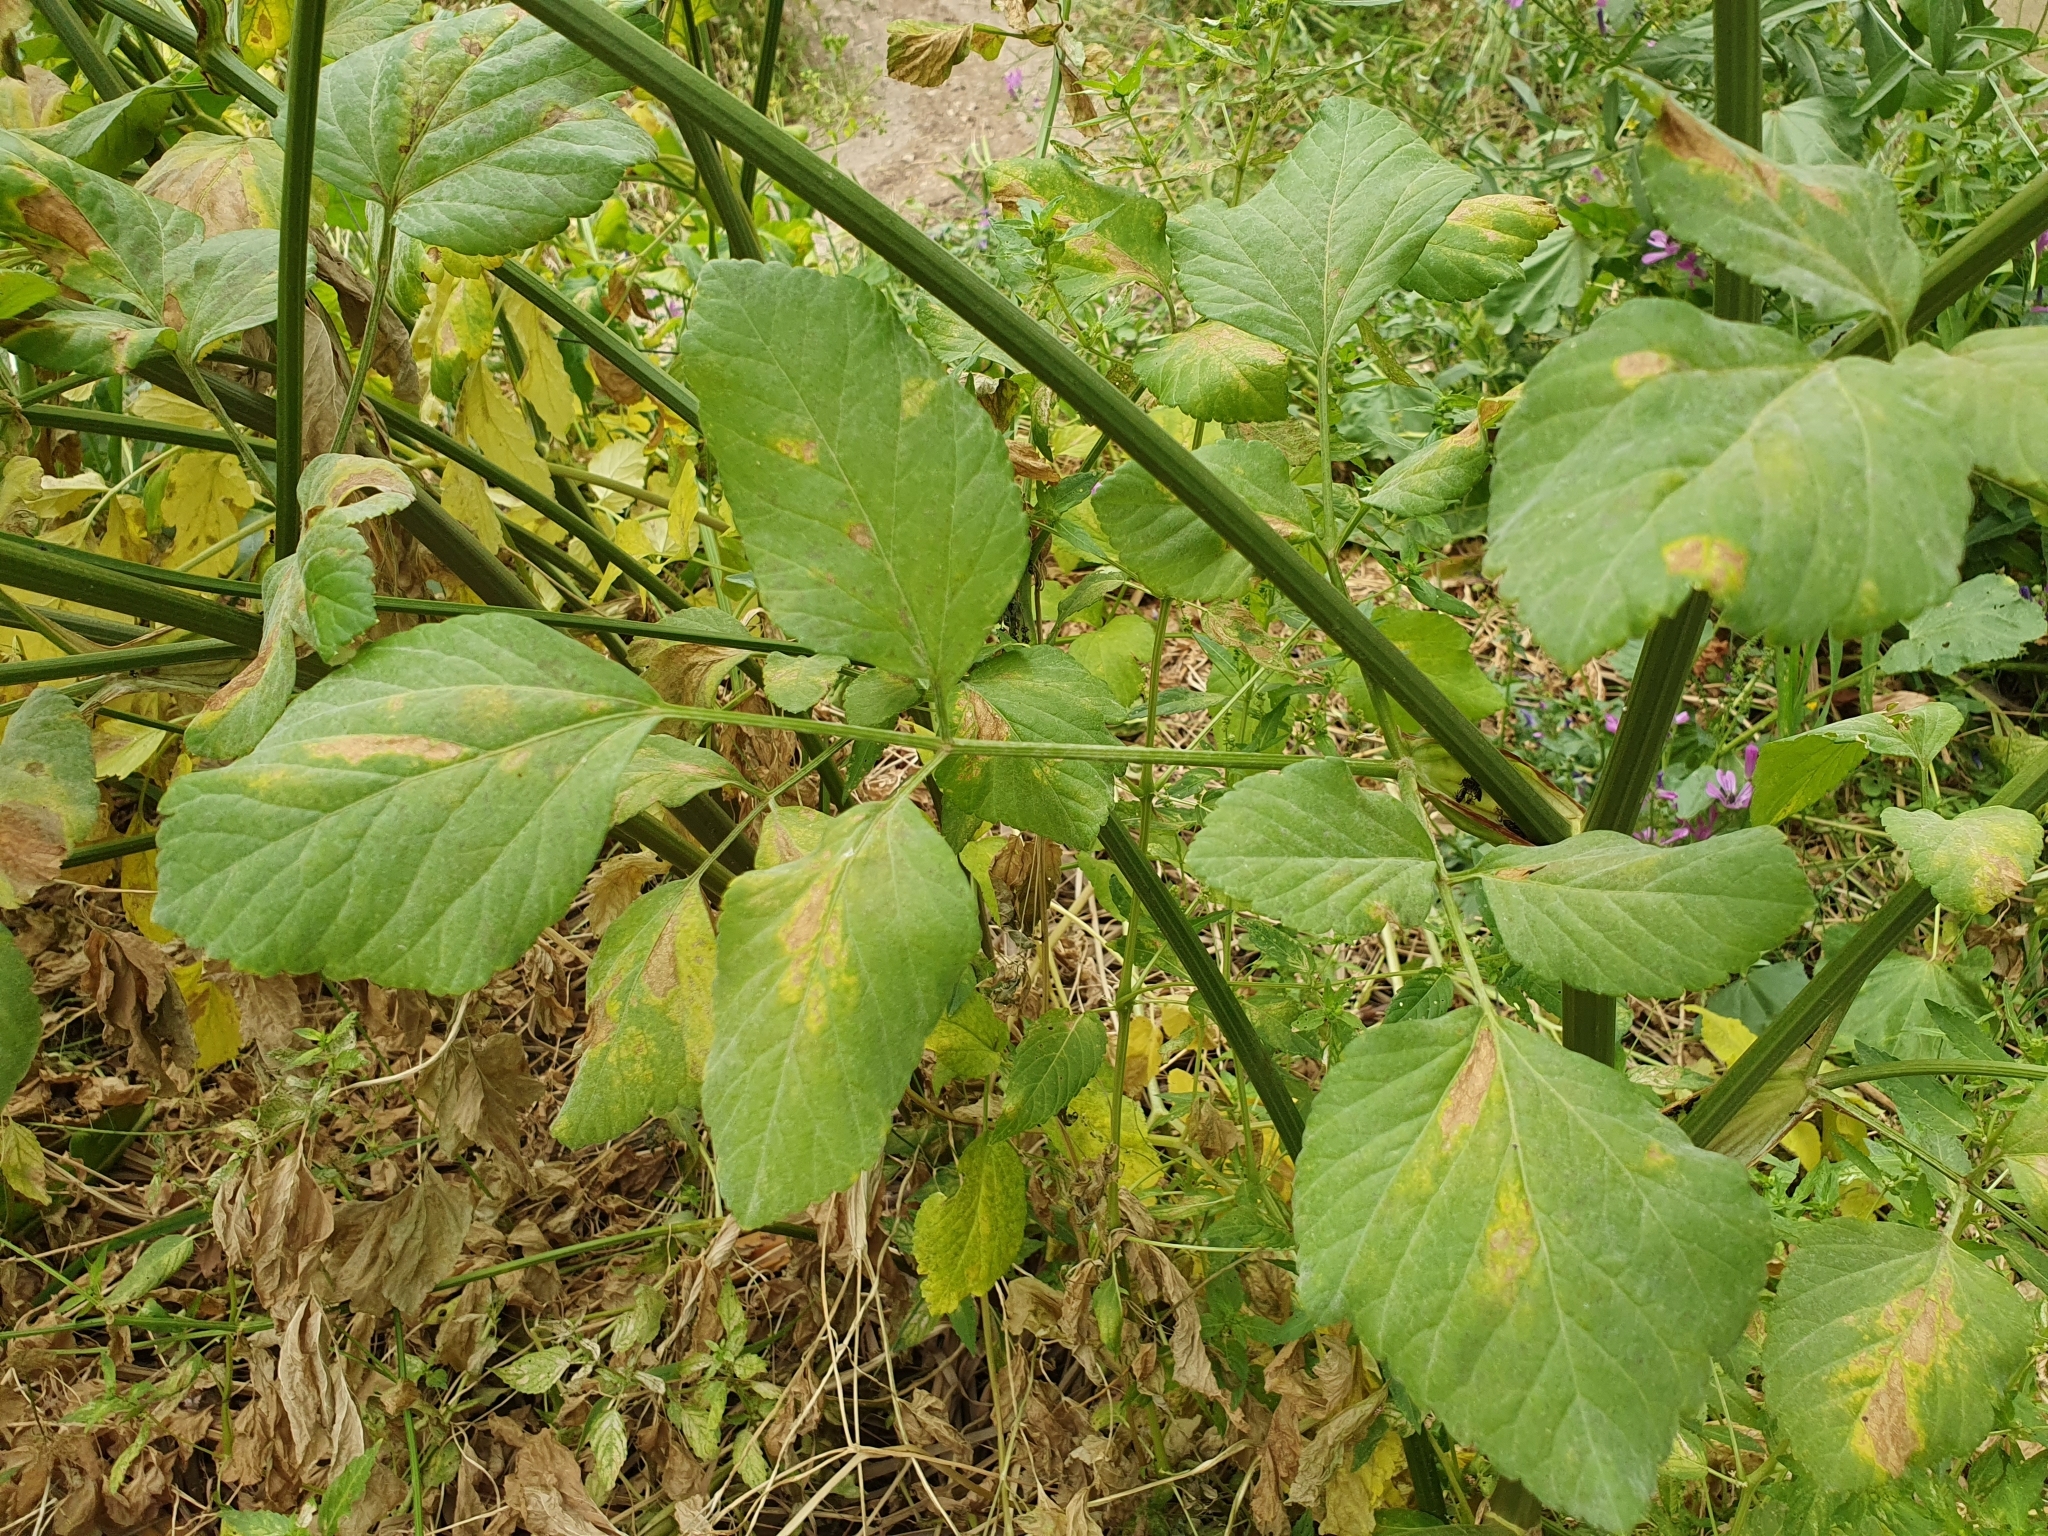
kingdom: Plantae
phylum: Tracheophyta
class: Magnoliopsida
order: Apiales
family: Apiaceae
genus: Smyrnium
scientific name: Smyrnium olusatrum
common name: Alexanders
